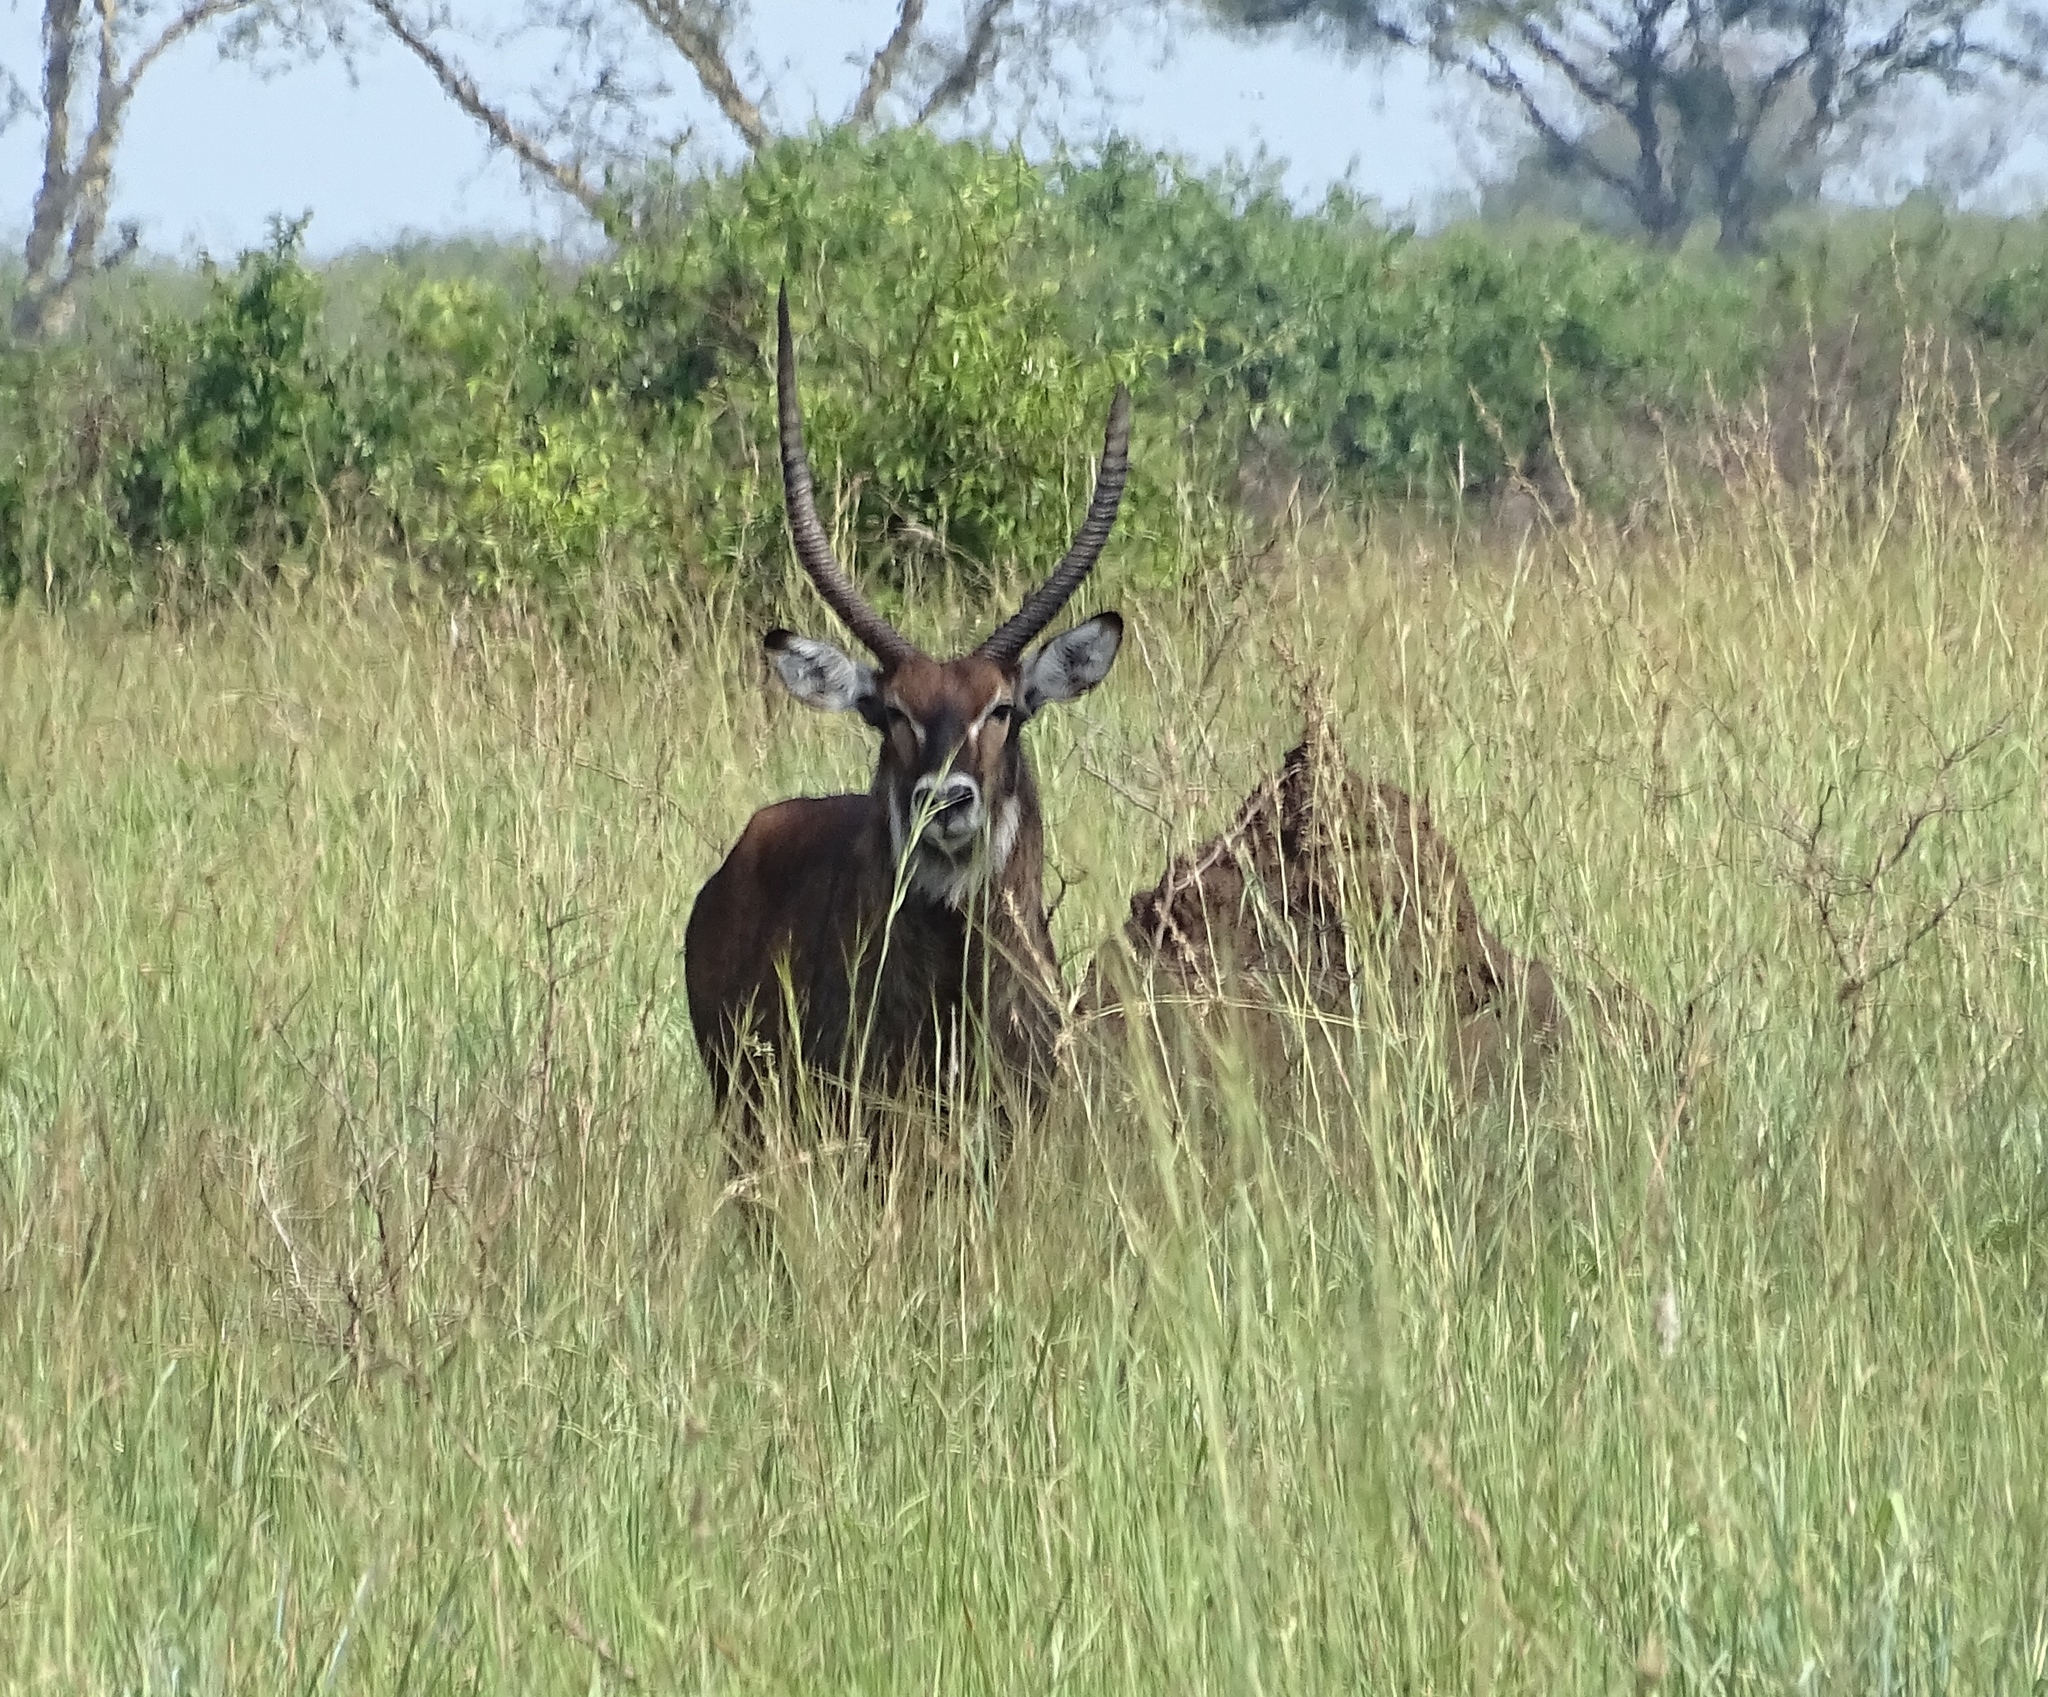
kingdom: Animalia
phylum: Chordata
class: Mammalia
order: Artiodactyla
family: Bovidae
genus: Kobus
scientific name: Kobus ellipsiprymnus
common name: Waterbuck
